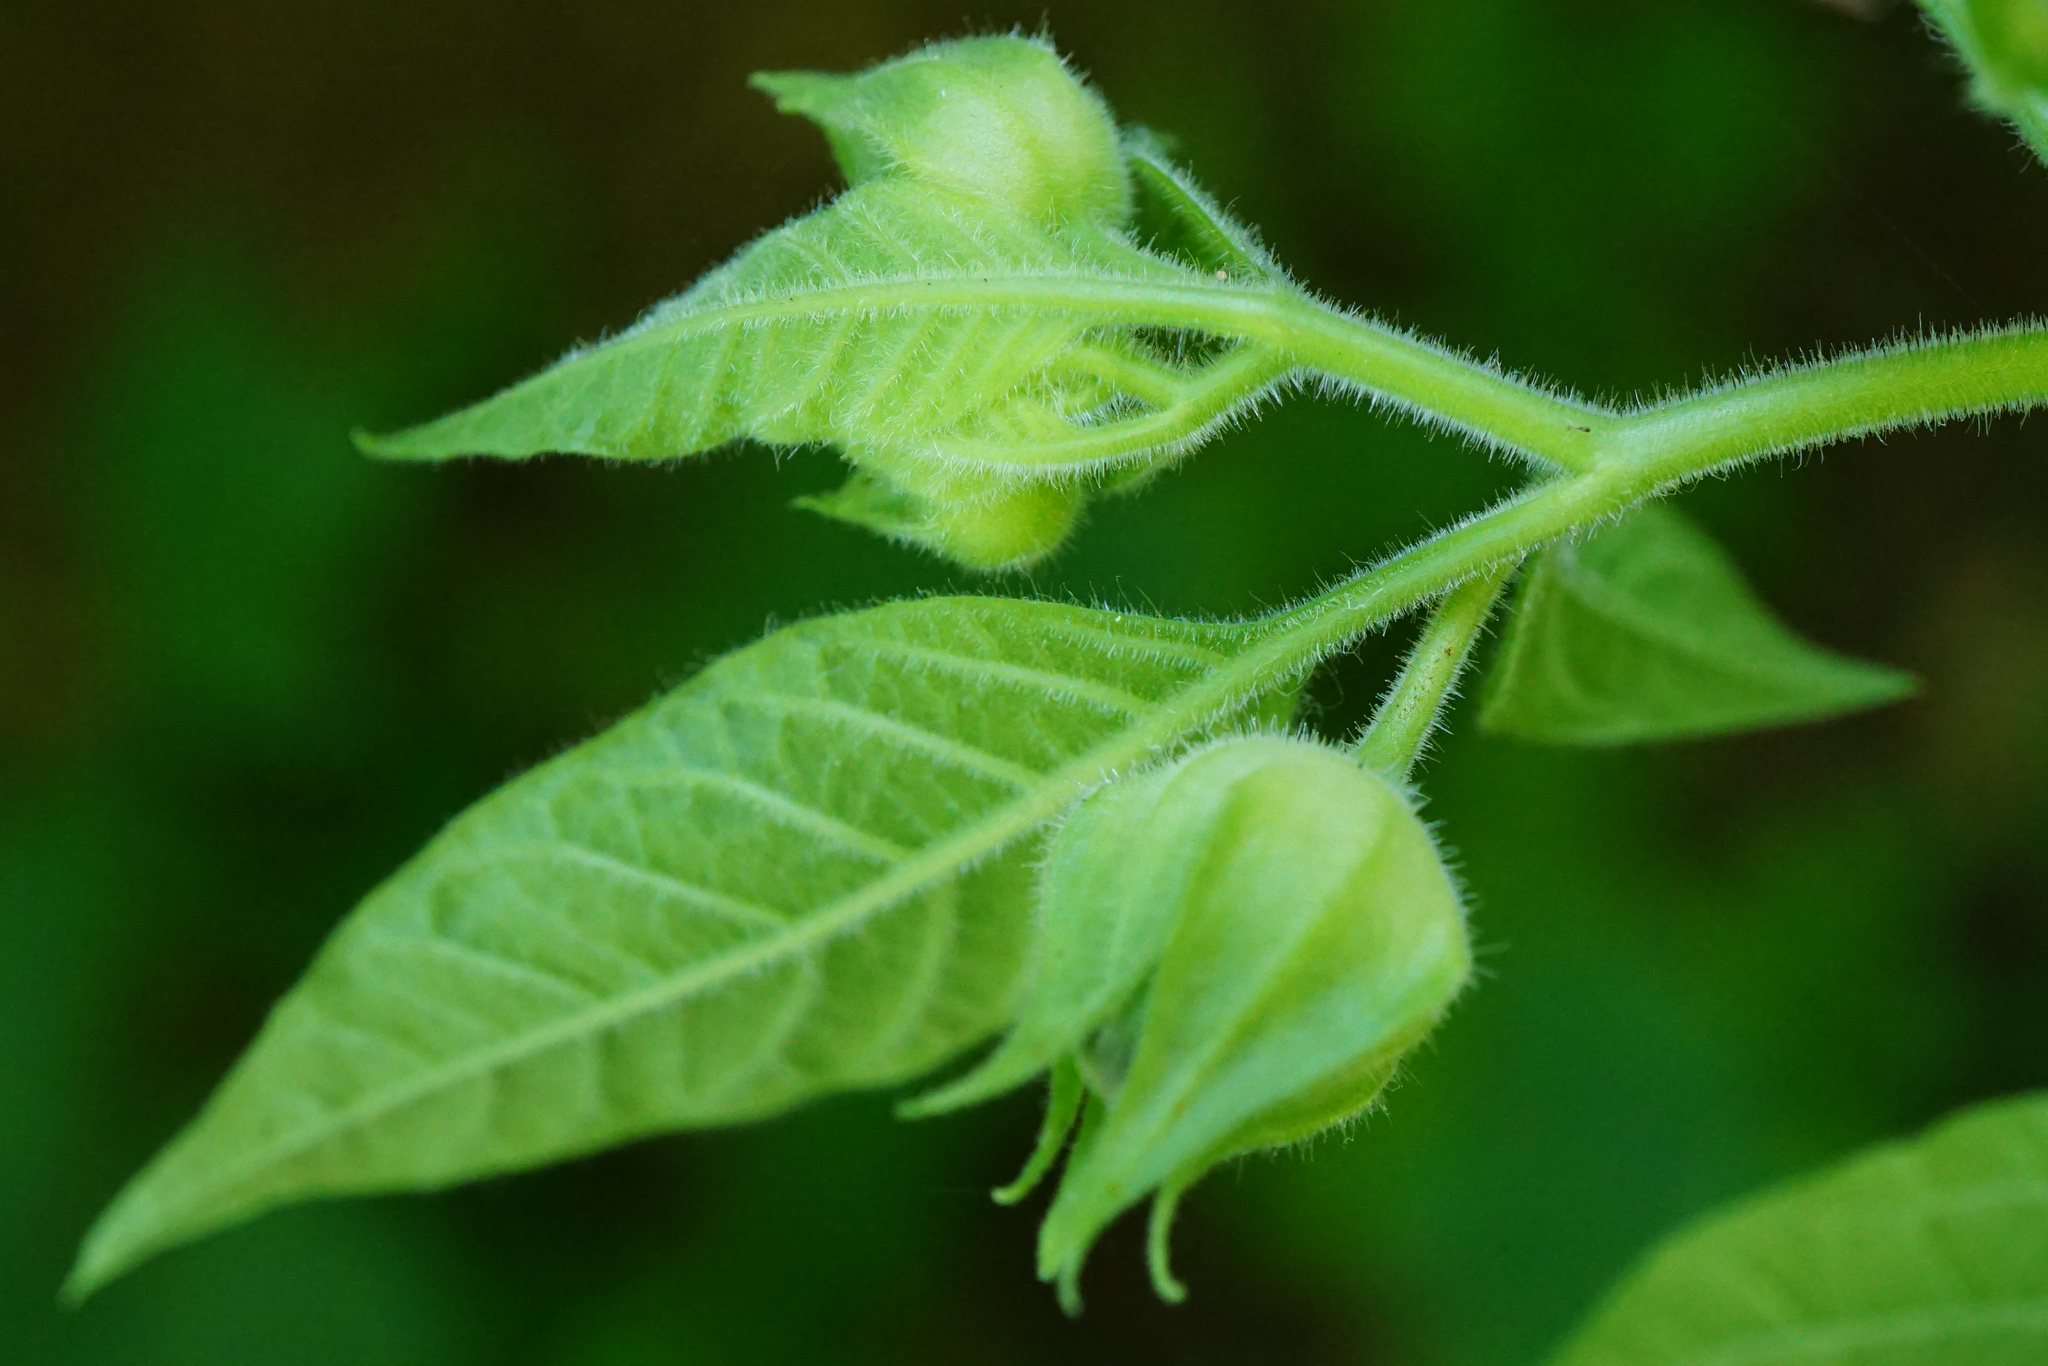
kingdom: Plantae
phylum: Tracheophyta
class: Magnoliopsida
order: Solanales
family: Solanaceae
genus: Atropa
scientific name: Atropa belladonna
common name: Deadly nightshade
